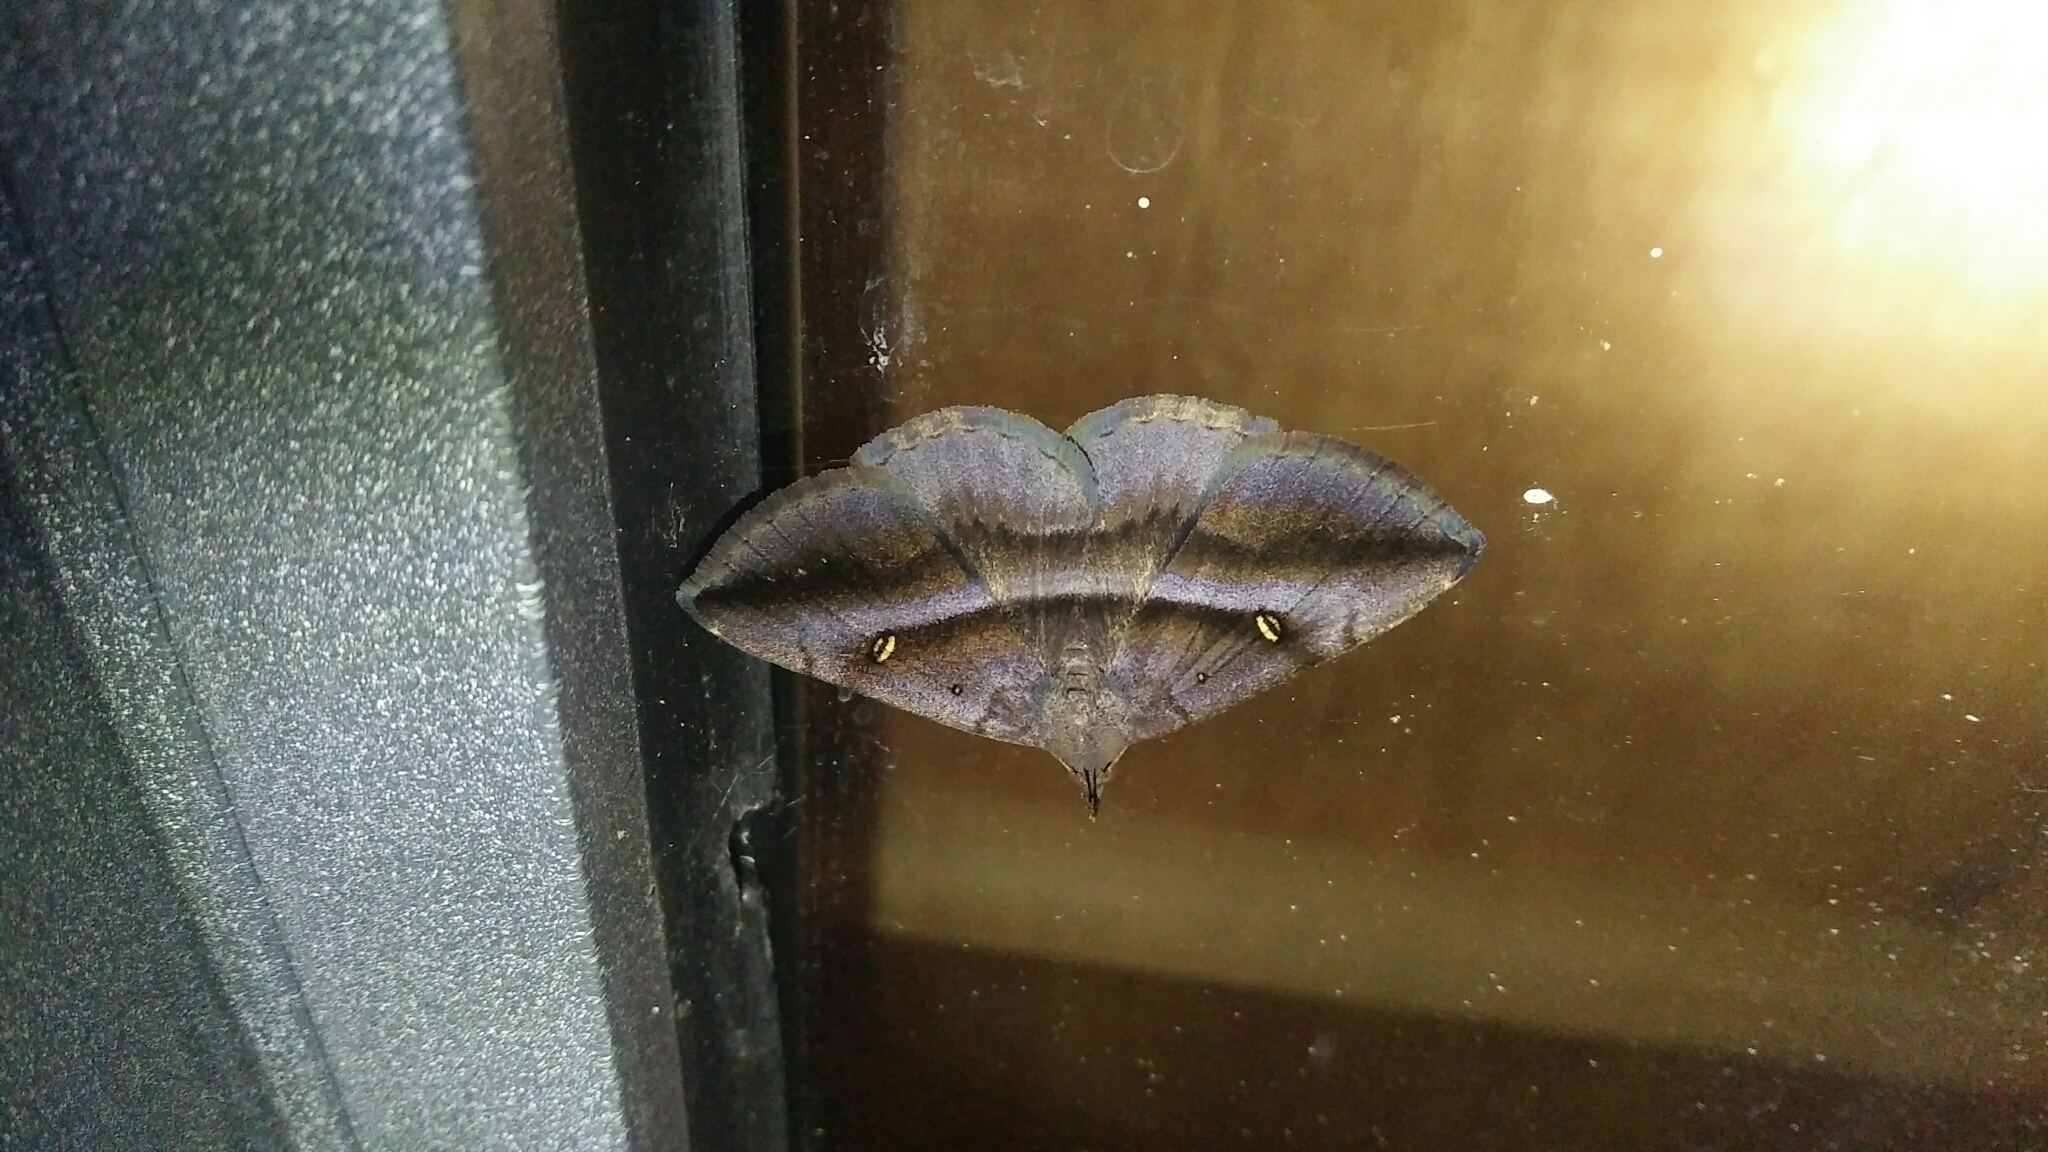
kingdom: Animalia
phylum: Arthropoda
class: Insecta
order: Lepidoptera
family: Erebidae
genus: Hadennia
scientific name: Hadennia hypenalis
